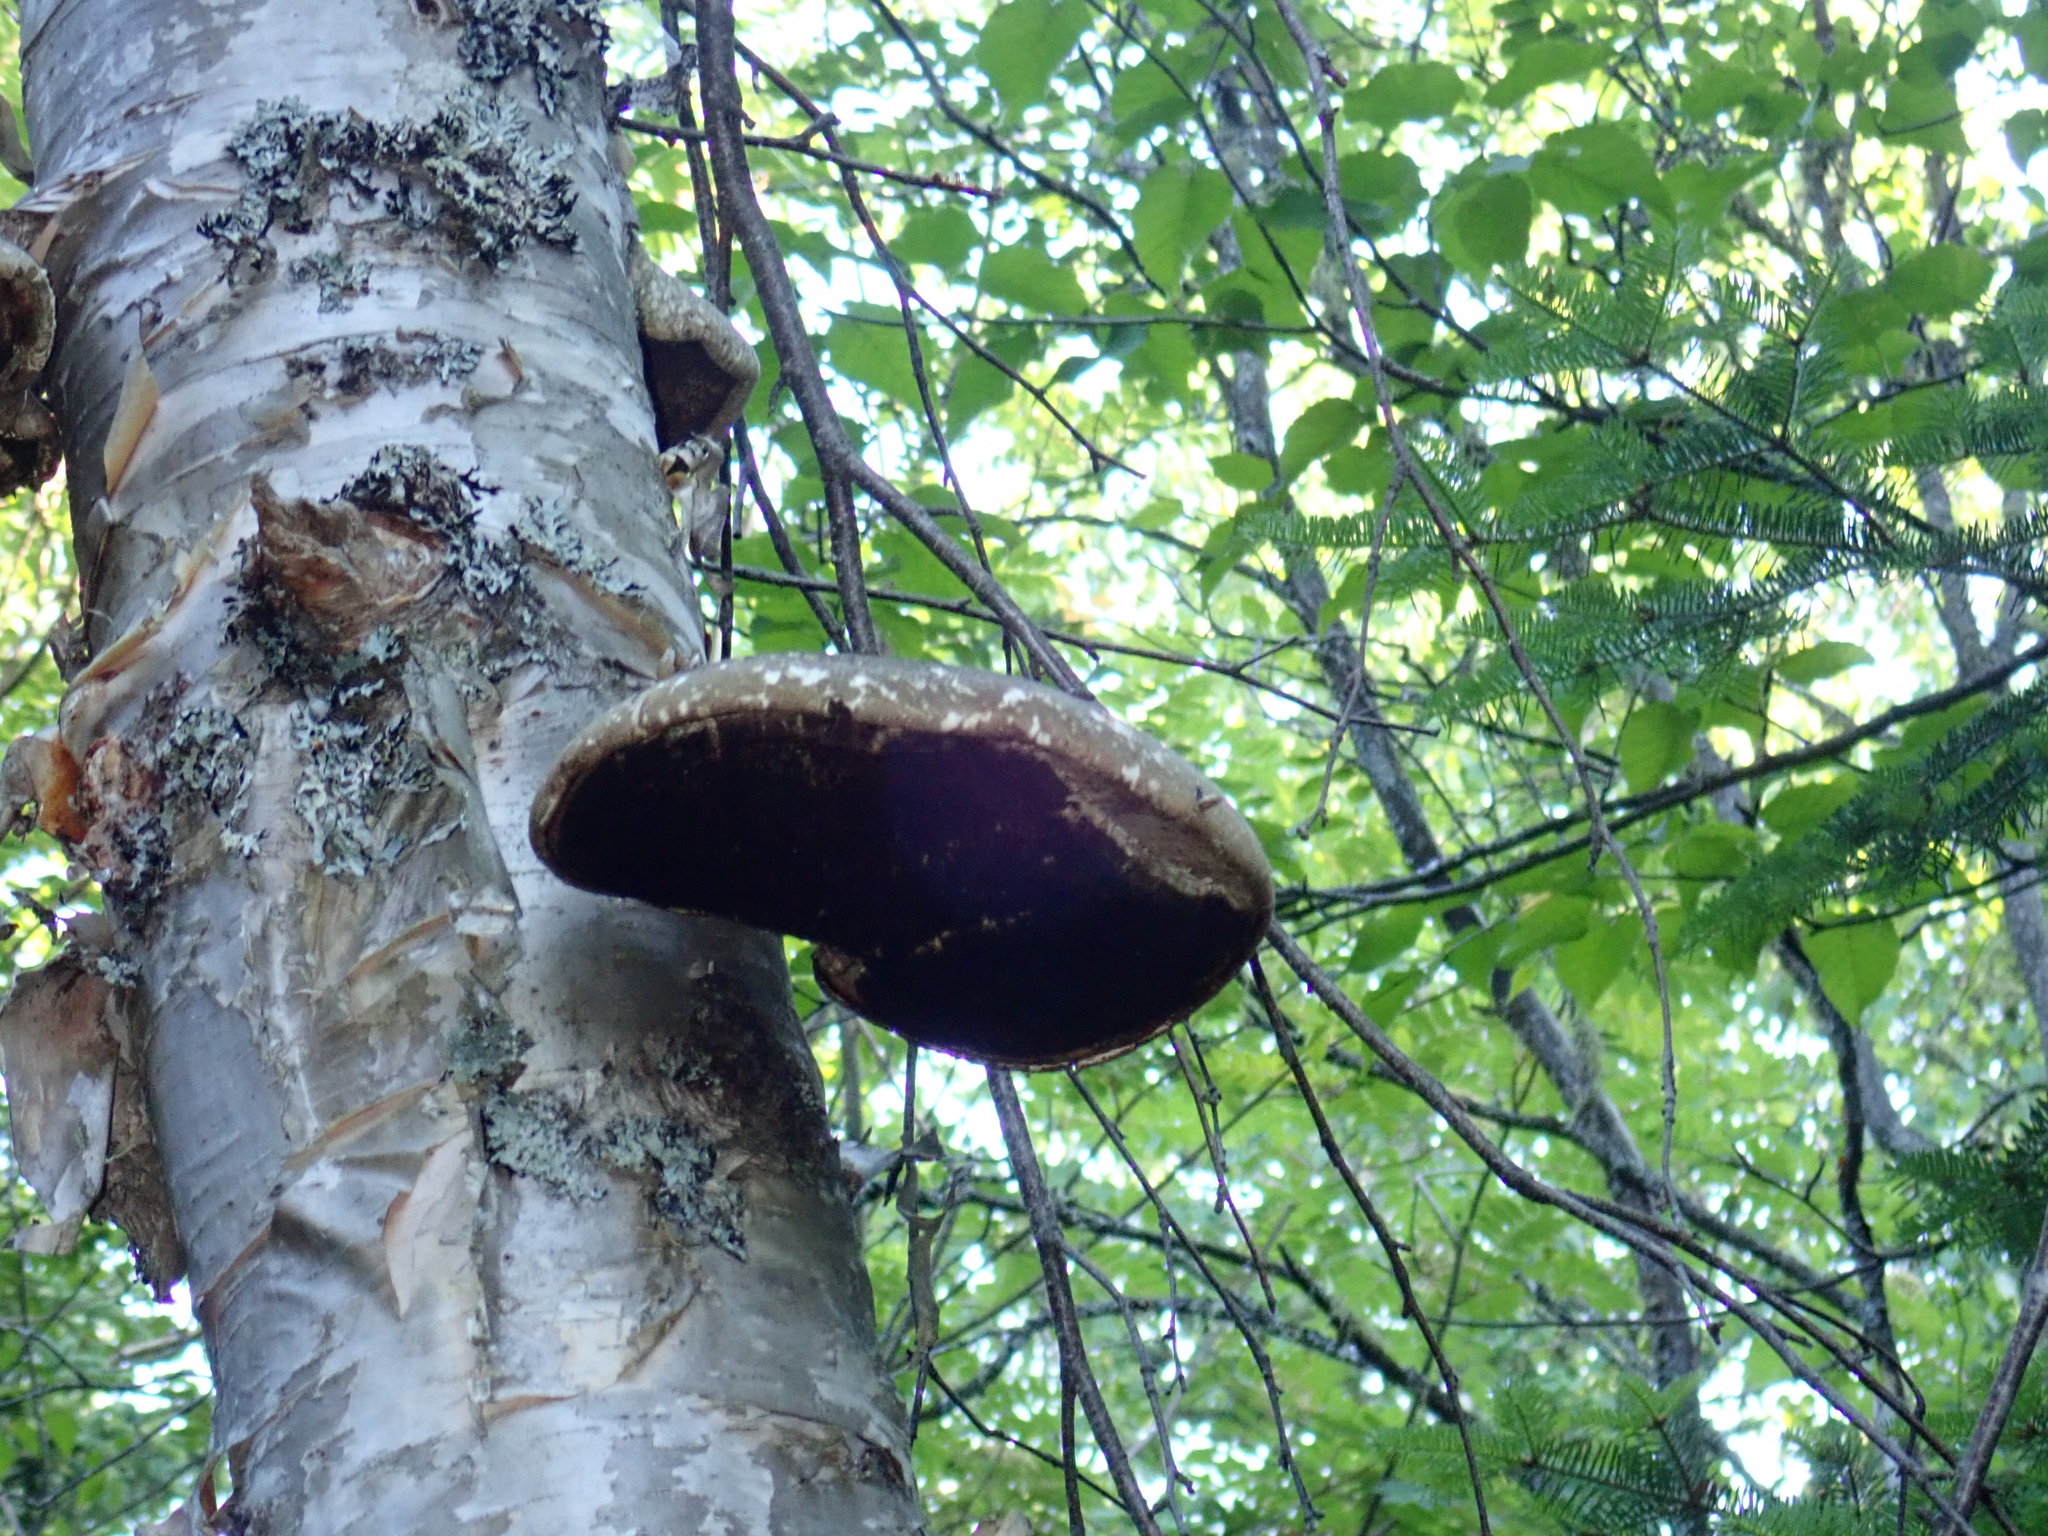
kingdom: Fungi
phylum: Basidiomycota
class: Agaricomycetes
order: Polyporales
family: Fomitopsidaceae
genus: Fomitopsis
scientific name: Fomitopsis betulina
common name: Birch polypore
